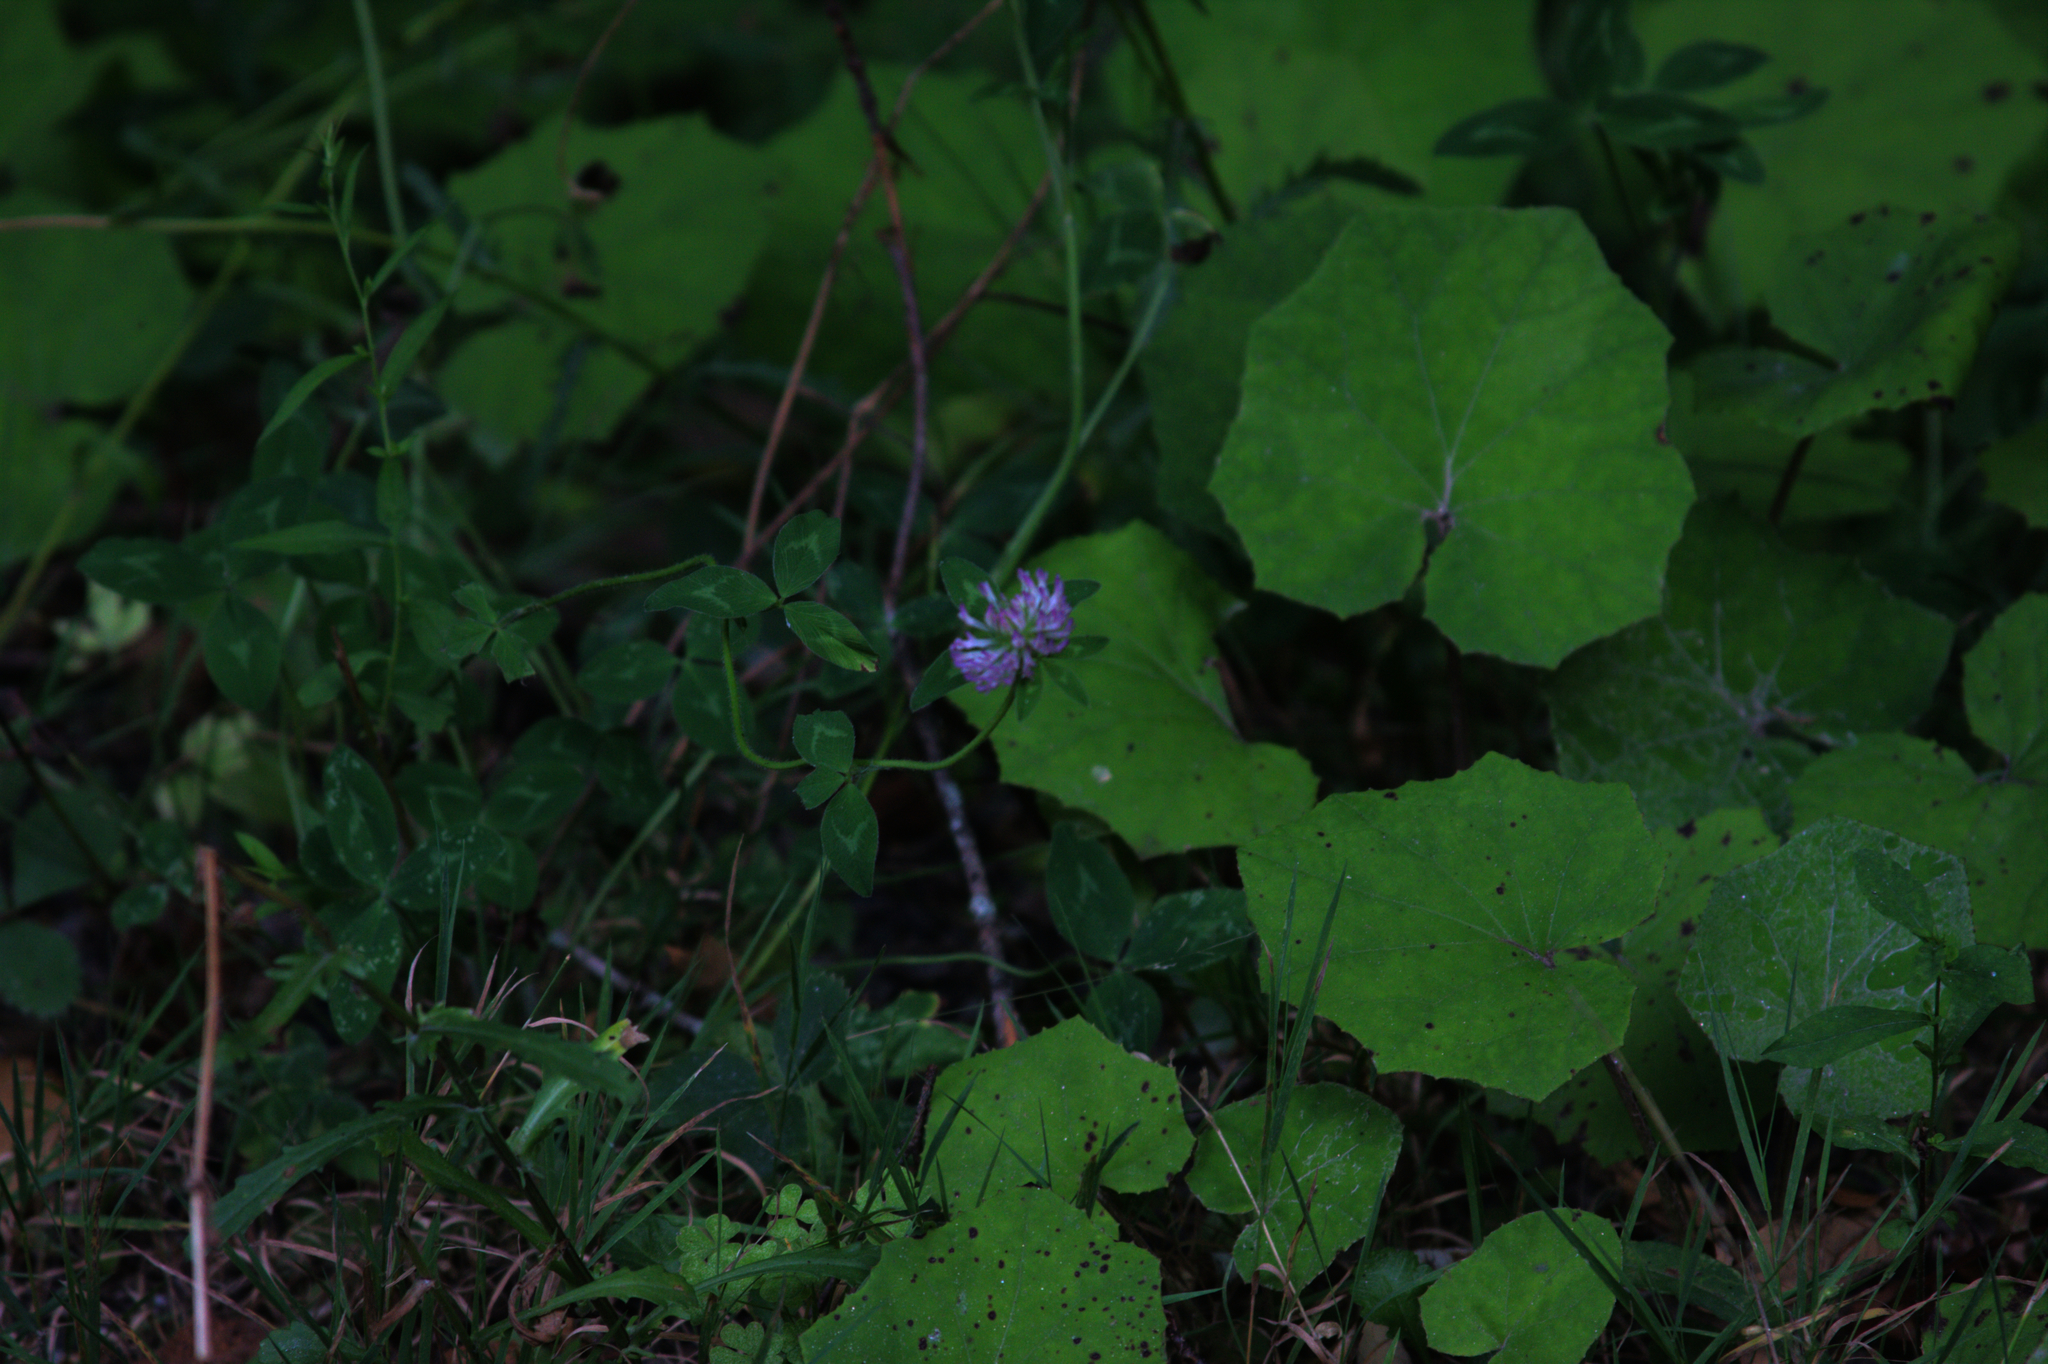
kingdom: Plantae
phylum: Tracheophyta
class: Magnoliopsida
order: Asterales
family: Asteraceae
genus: Tussilago
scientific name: Tussilago farfara
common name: Coltsfoot
